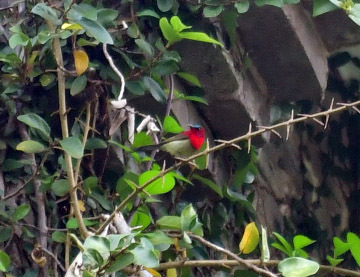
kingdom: Animalia
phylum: Chordata
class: Aves
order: Passeriformes
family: Nectariniidae
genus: Aethopyga
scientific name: Aethopyga siparaja
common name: Crimson sunbird
